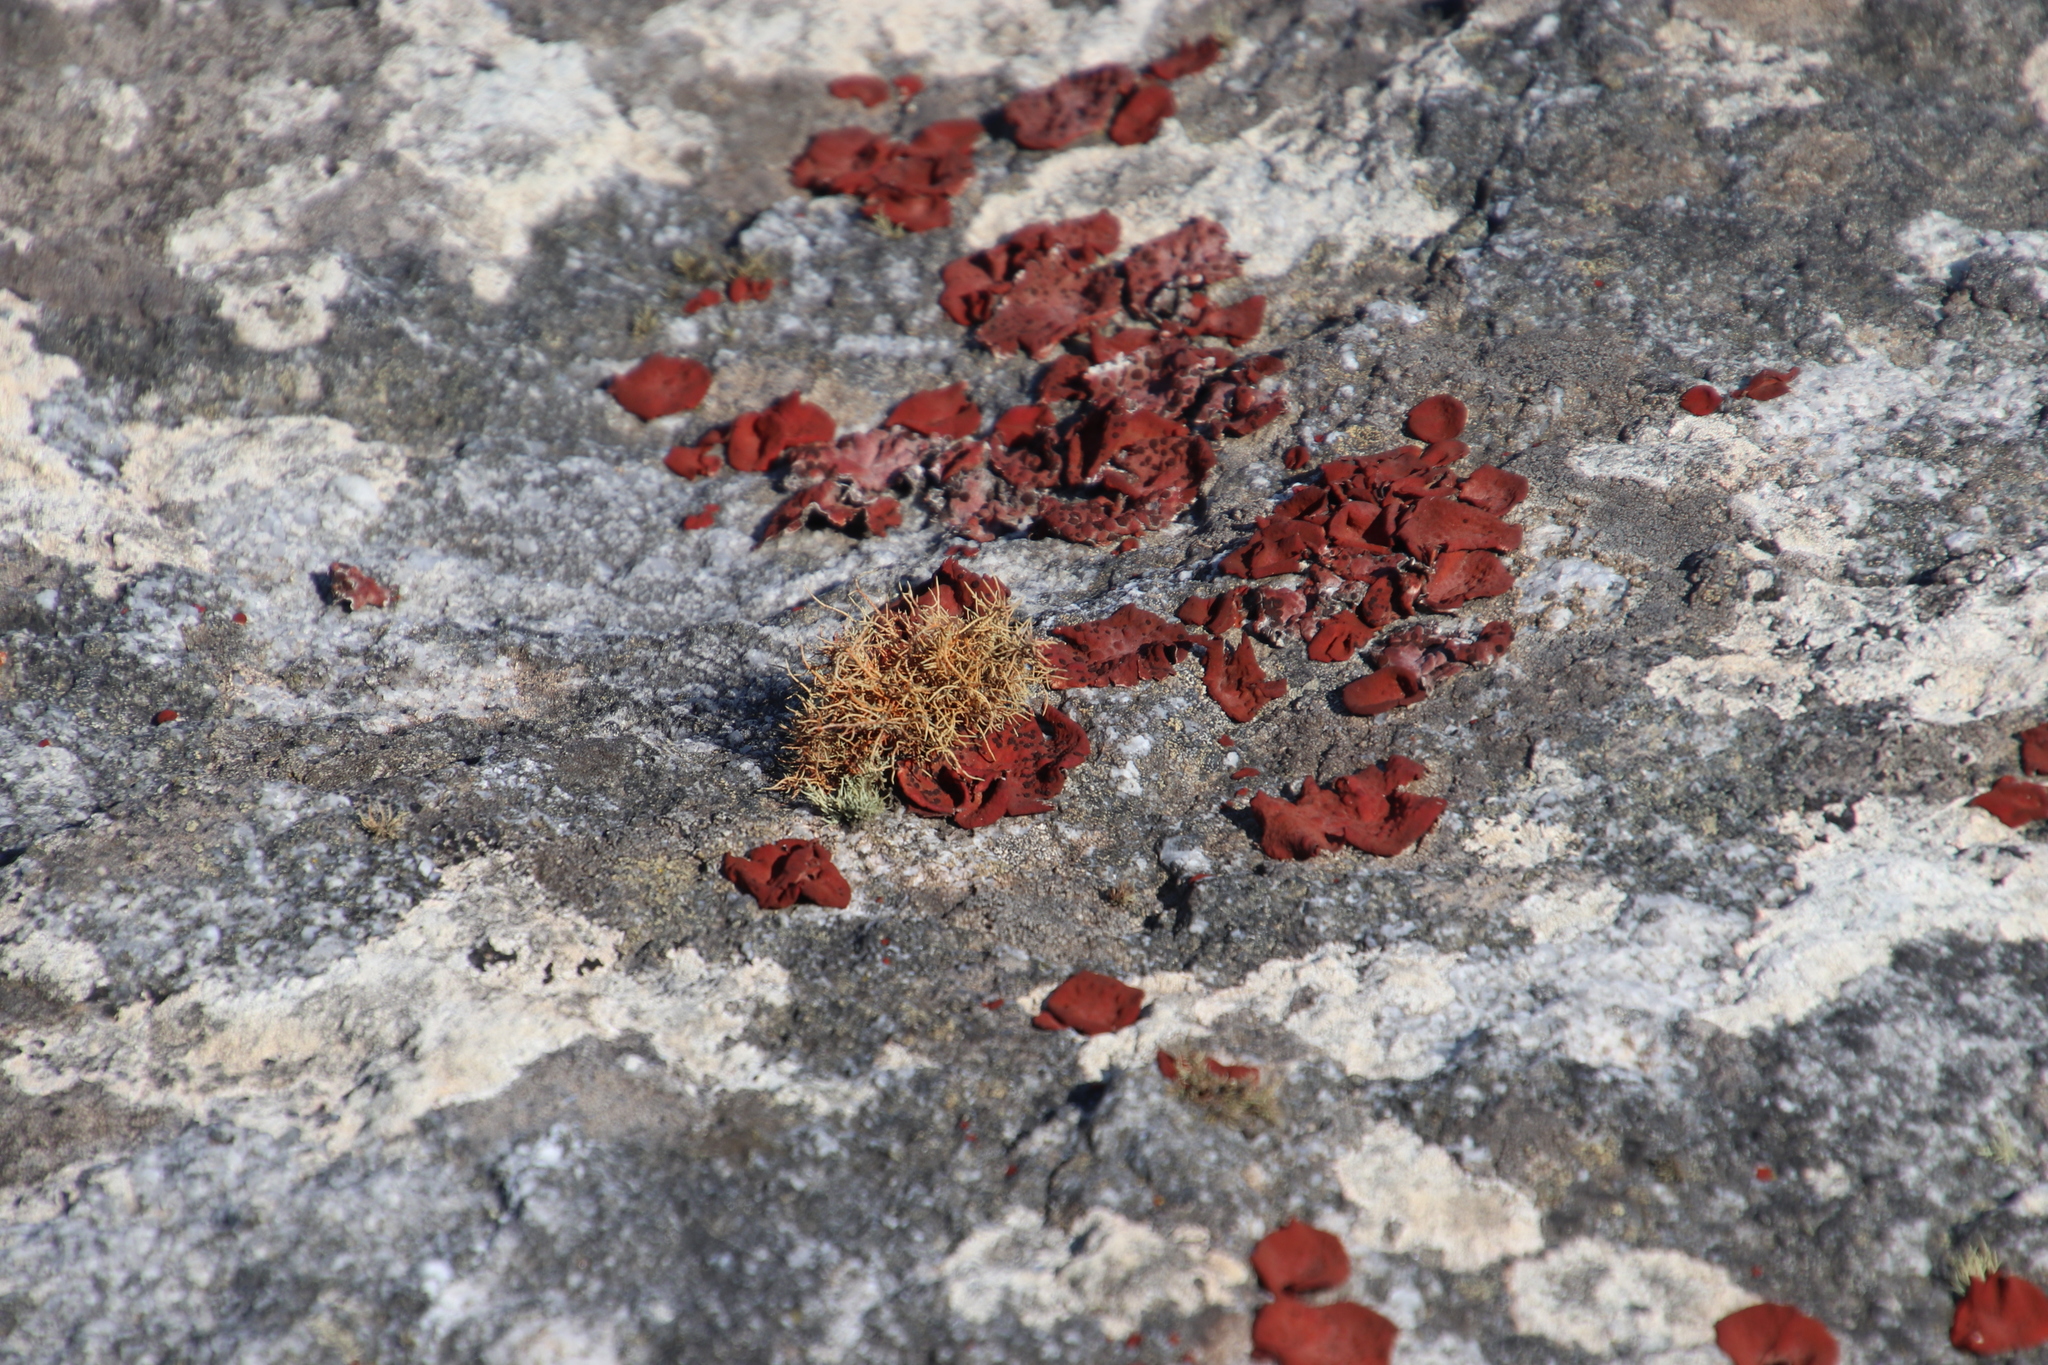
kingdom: Fungi
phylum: Ascomycota
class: Lecanoromycetes
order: Umbilicariales
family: Umbilicariaceae
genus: Lasallia
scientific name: Lasallia rubiginosa
